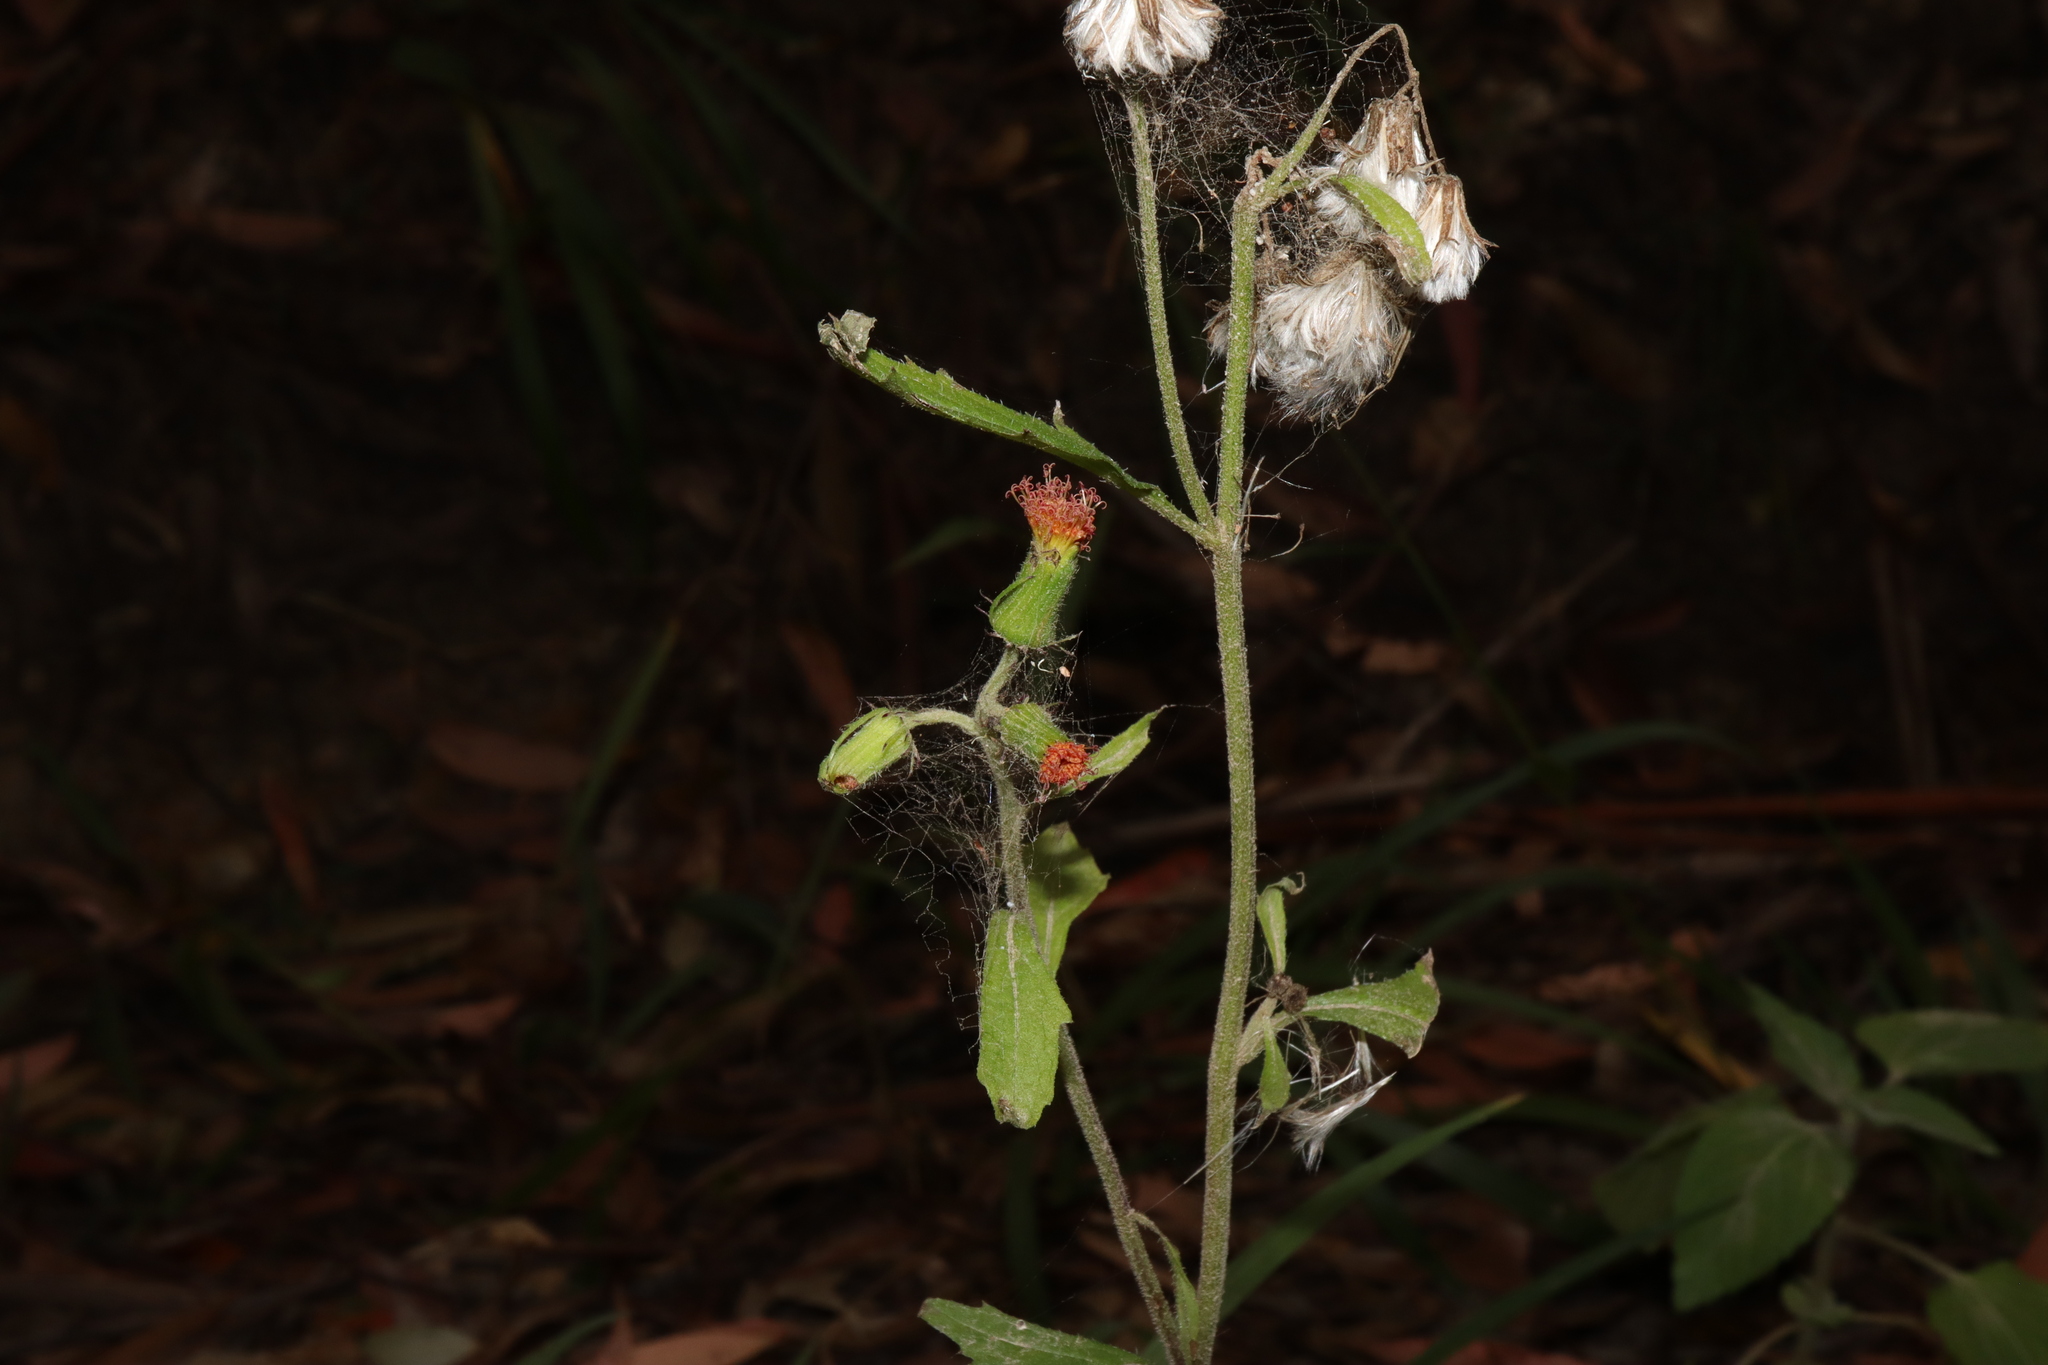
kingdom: Plantae
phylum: Tracheophyta
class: Magnoliopsida
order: Asterales
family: Asteraceae
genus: Crassocephalum
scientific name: Crassocephalum crepidioides
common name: Redflower ragleaf
